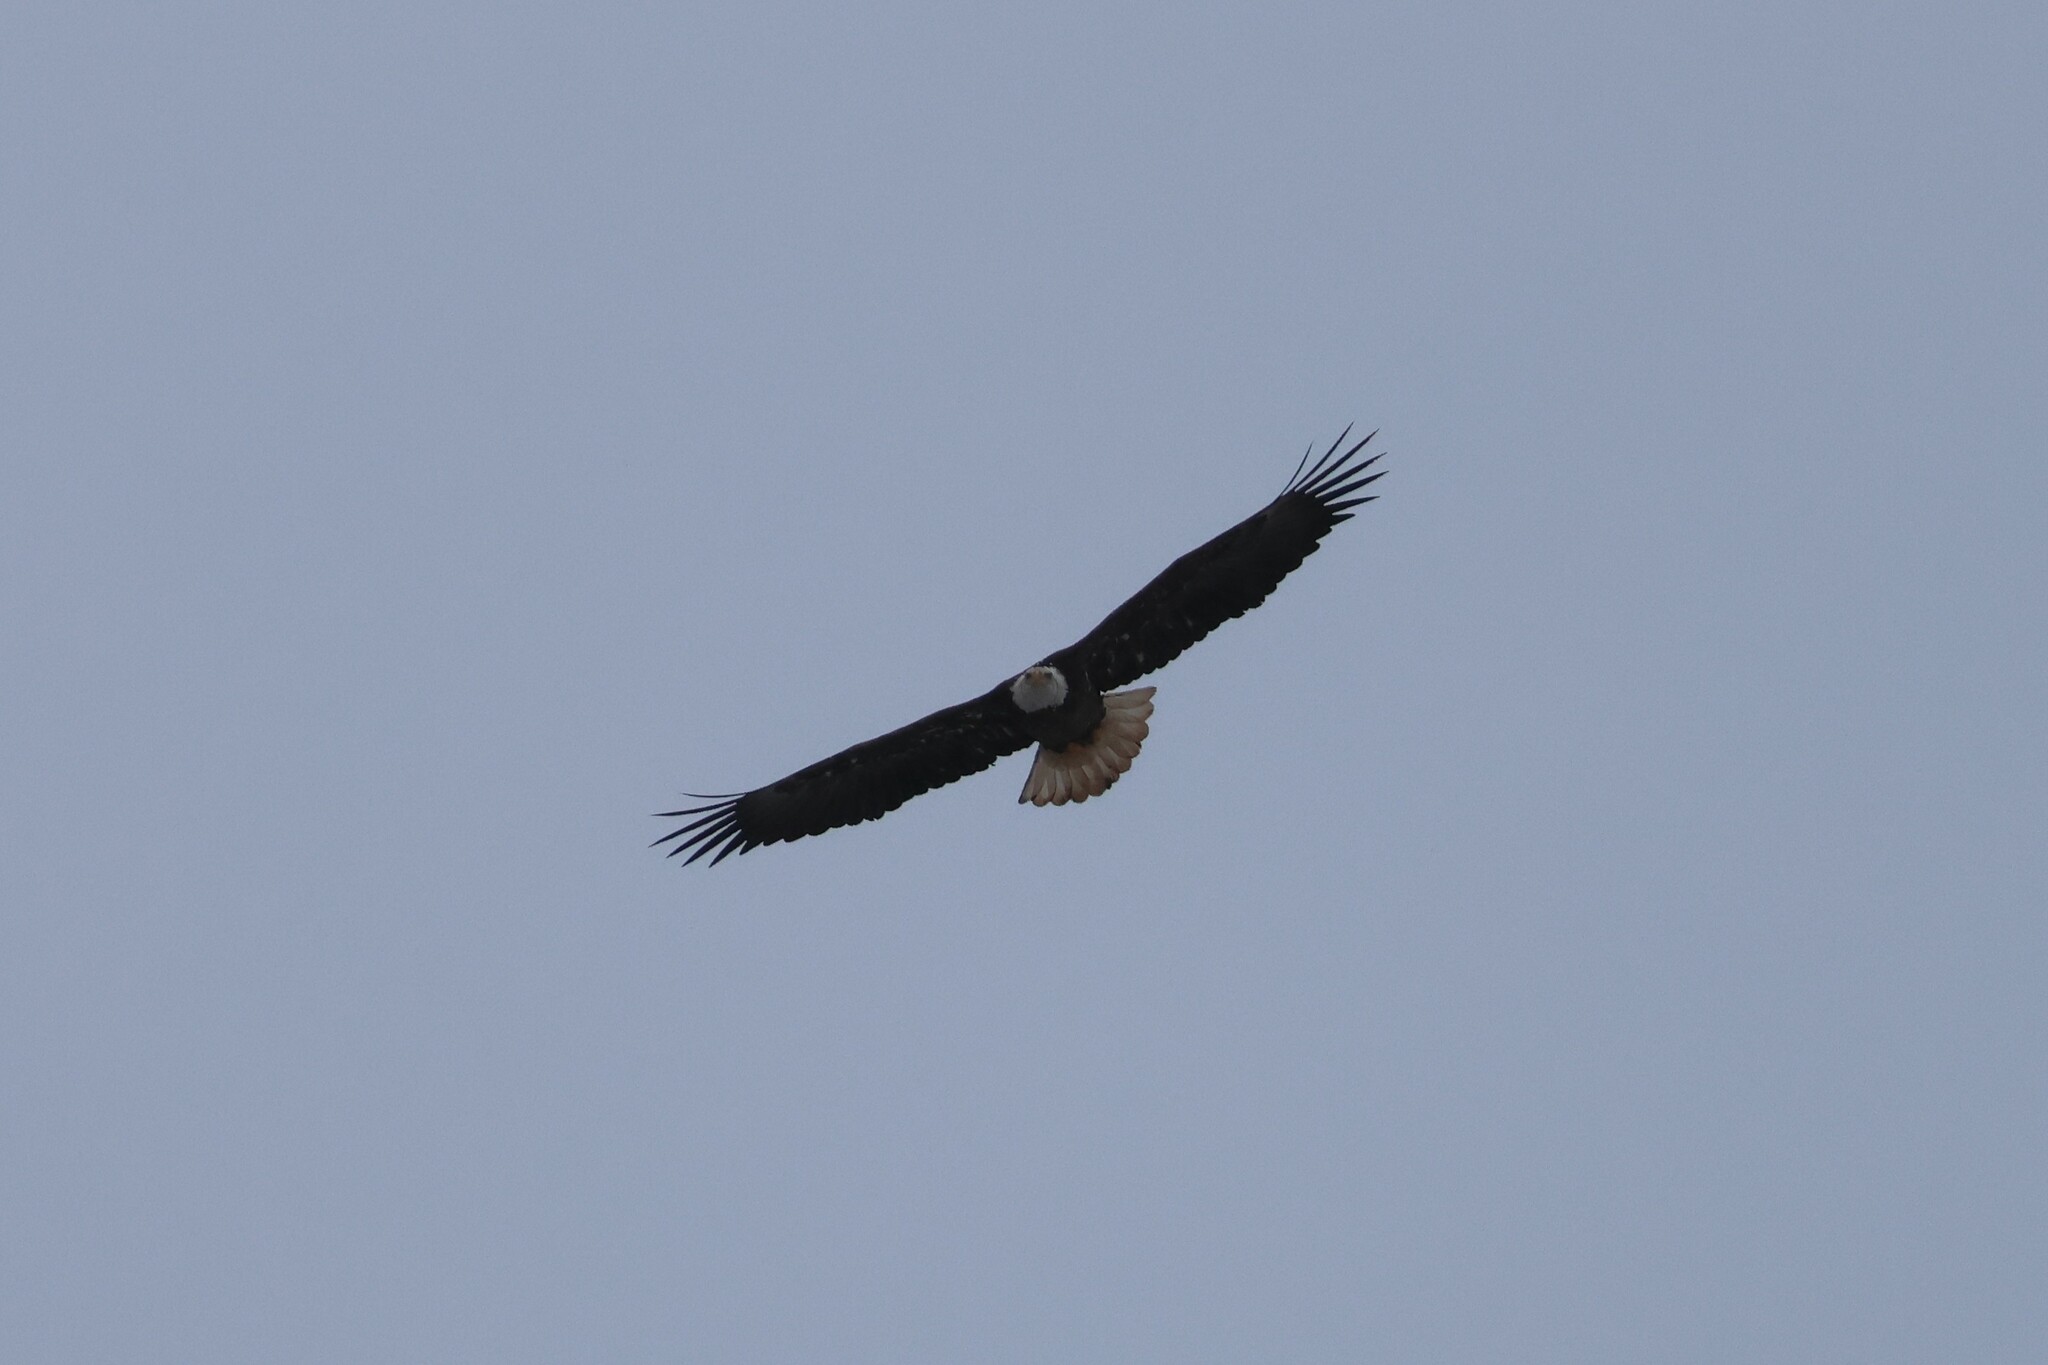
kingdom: Animalia
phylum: Chordata
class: Aves
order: Accipitriformes
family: Accipitridae
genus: Haliaeetus
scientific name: Haliaeetus leucocephalus
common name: Bald eagle
